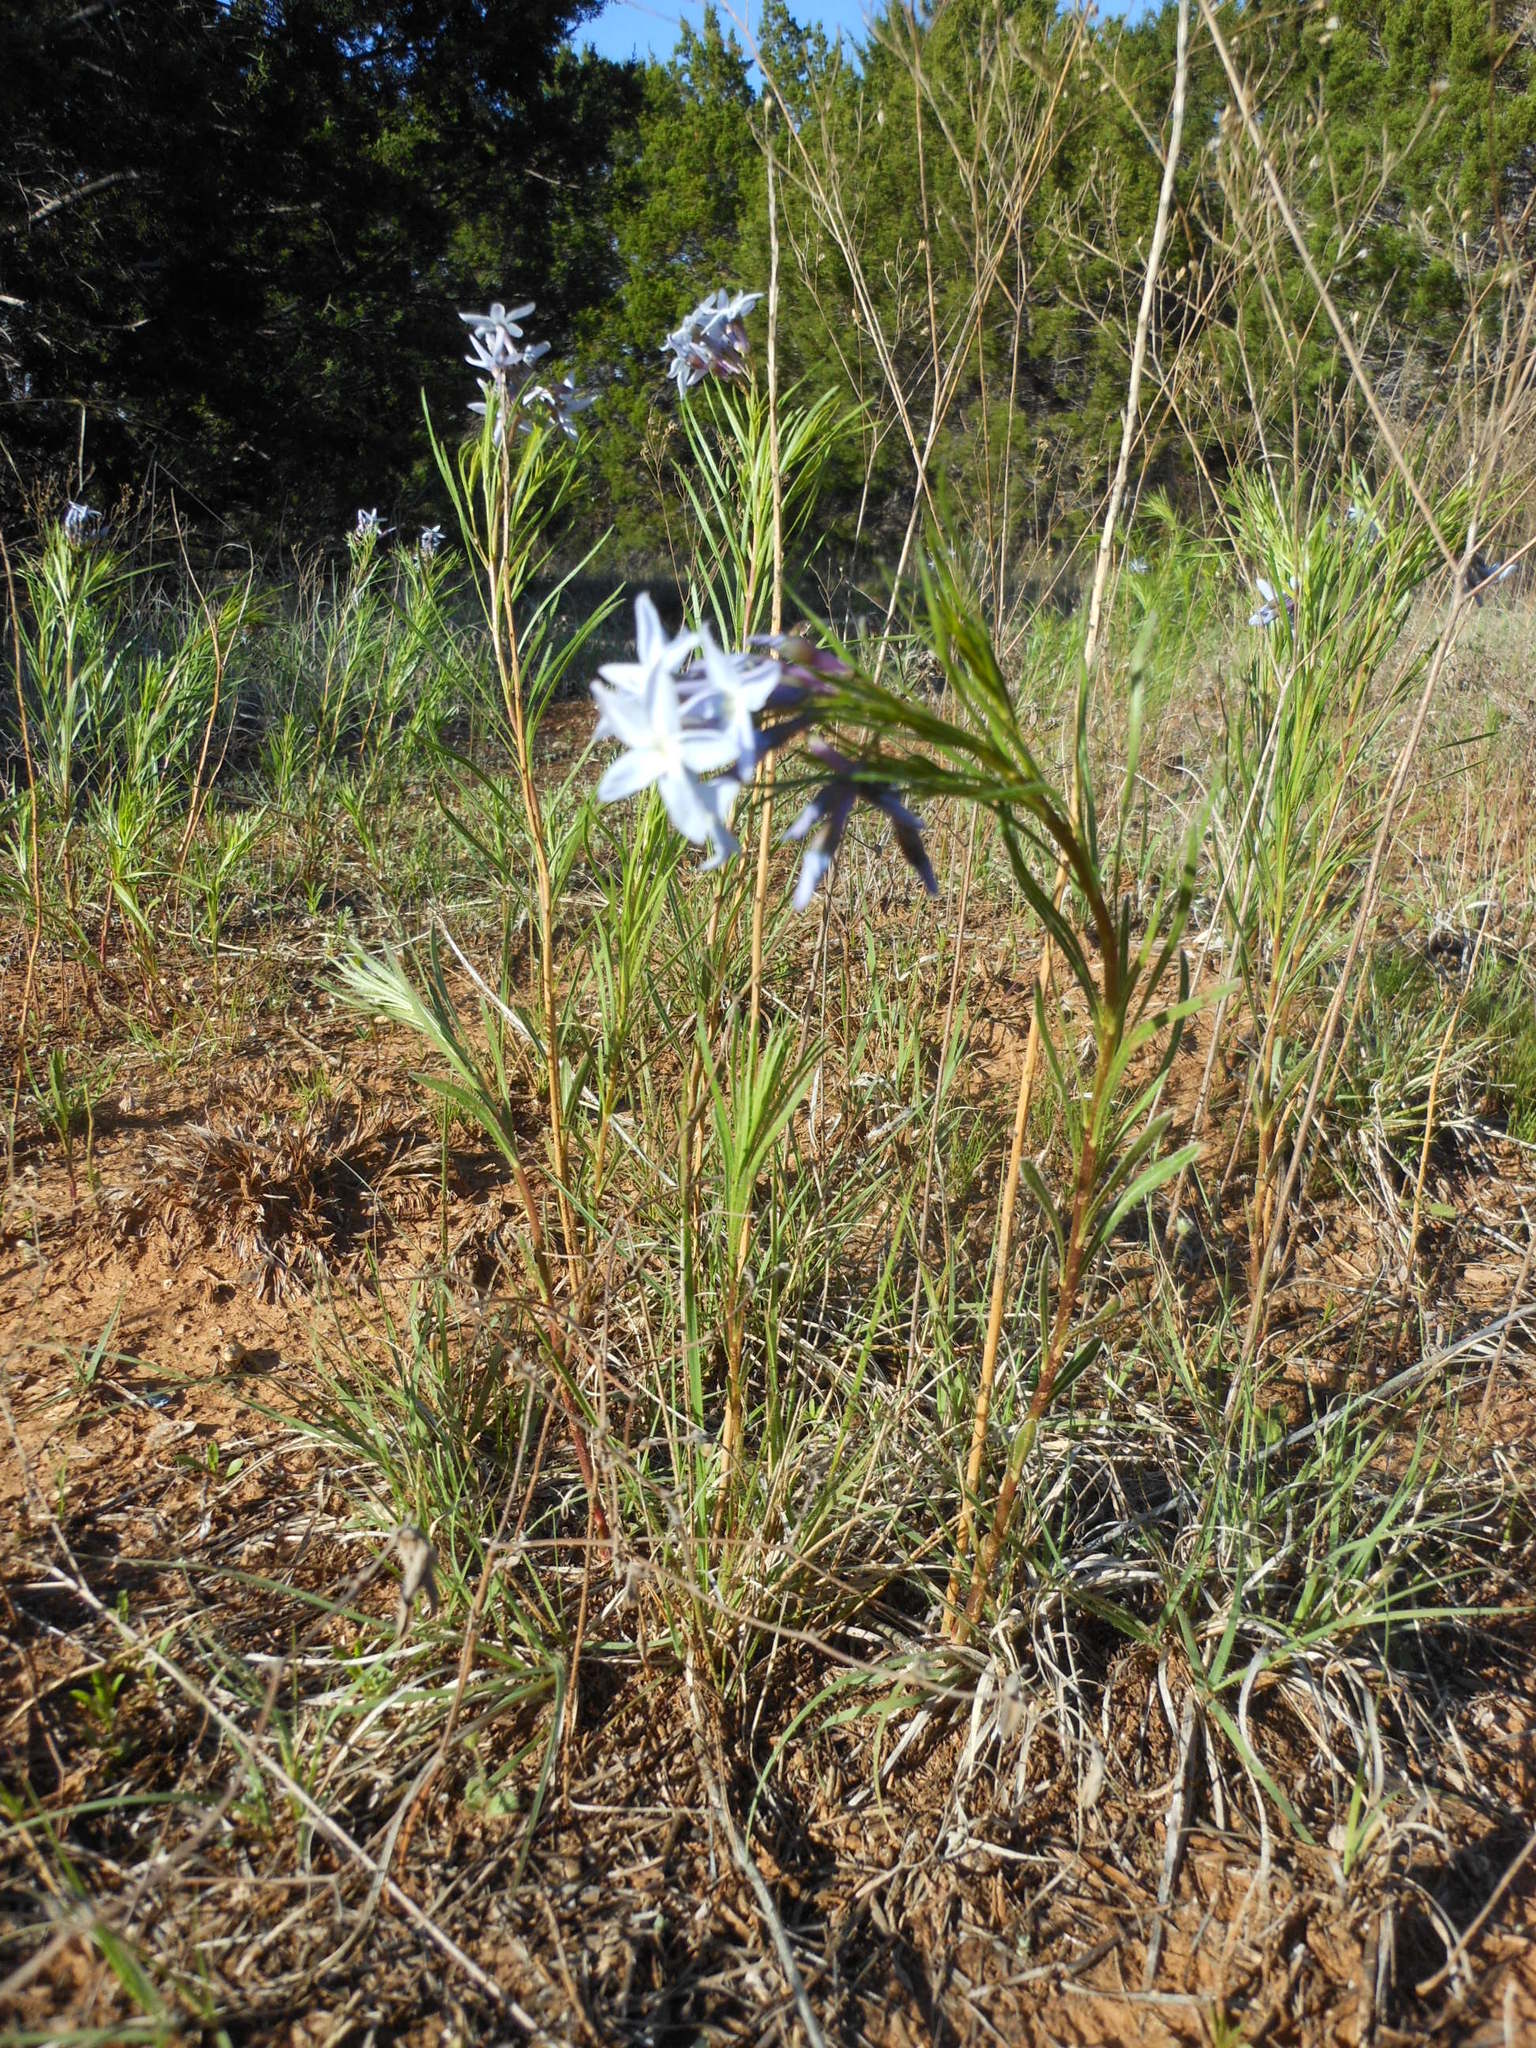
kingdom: Plantae
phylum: Tracheophyta
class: Magnoliopsida
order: Gentianales
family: Apocynaceae
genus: Amsonia
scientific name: Amsonia ciliata
